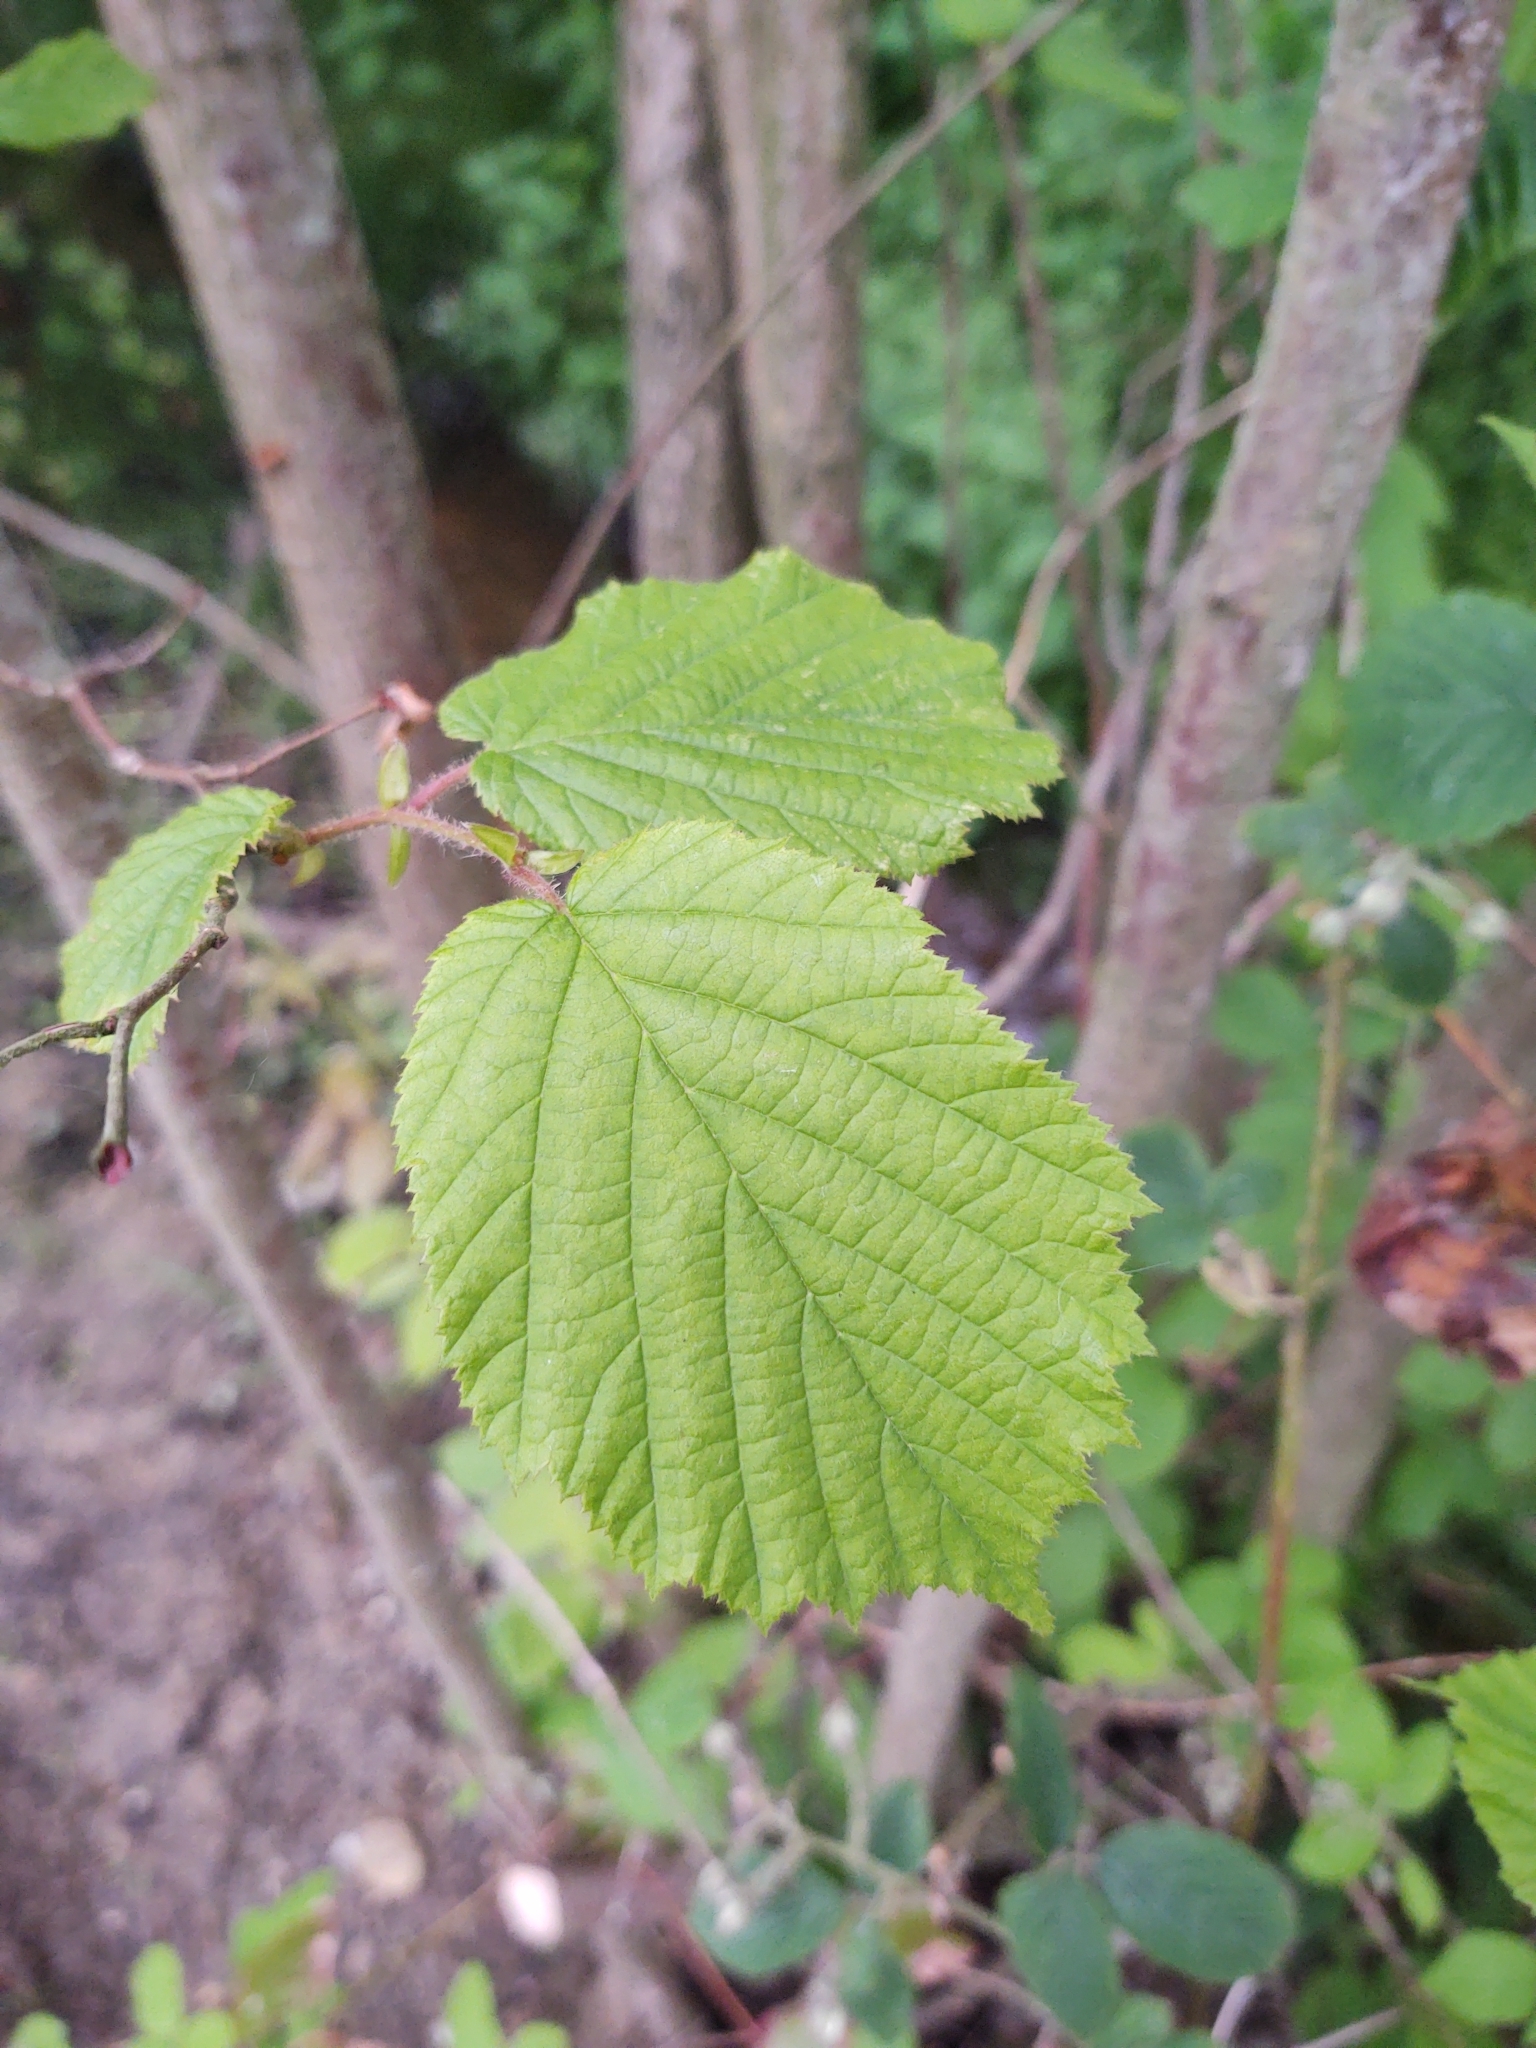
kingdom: Plantae
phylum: Tracheophyta
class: Magnoliopsida
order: Fagales
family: Betulaceae
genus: Corylus
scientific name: Corylus avellana
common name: European hazel
